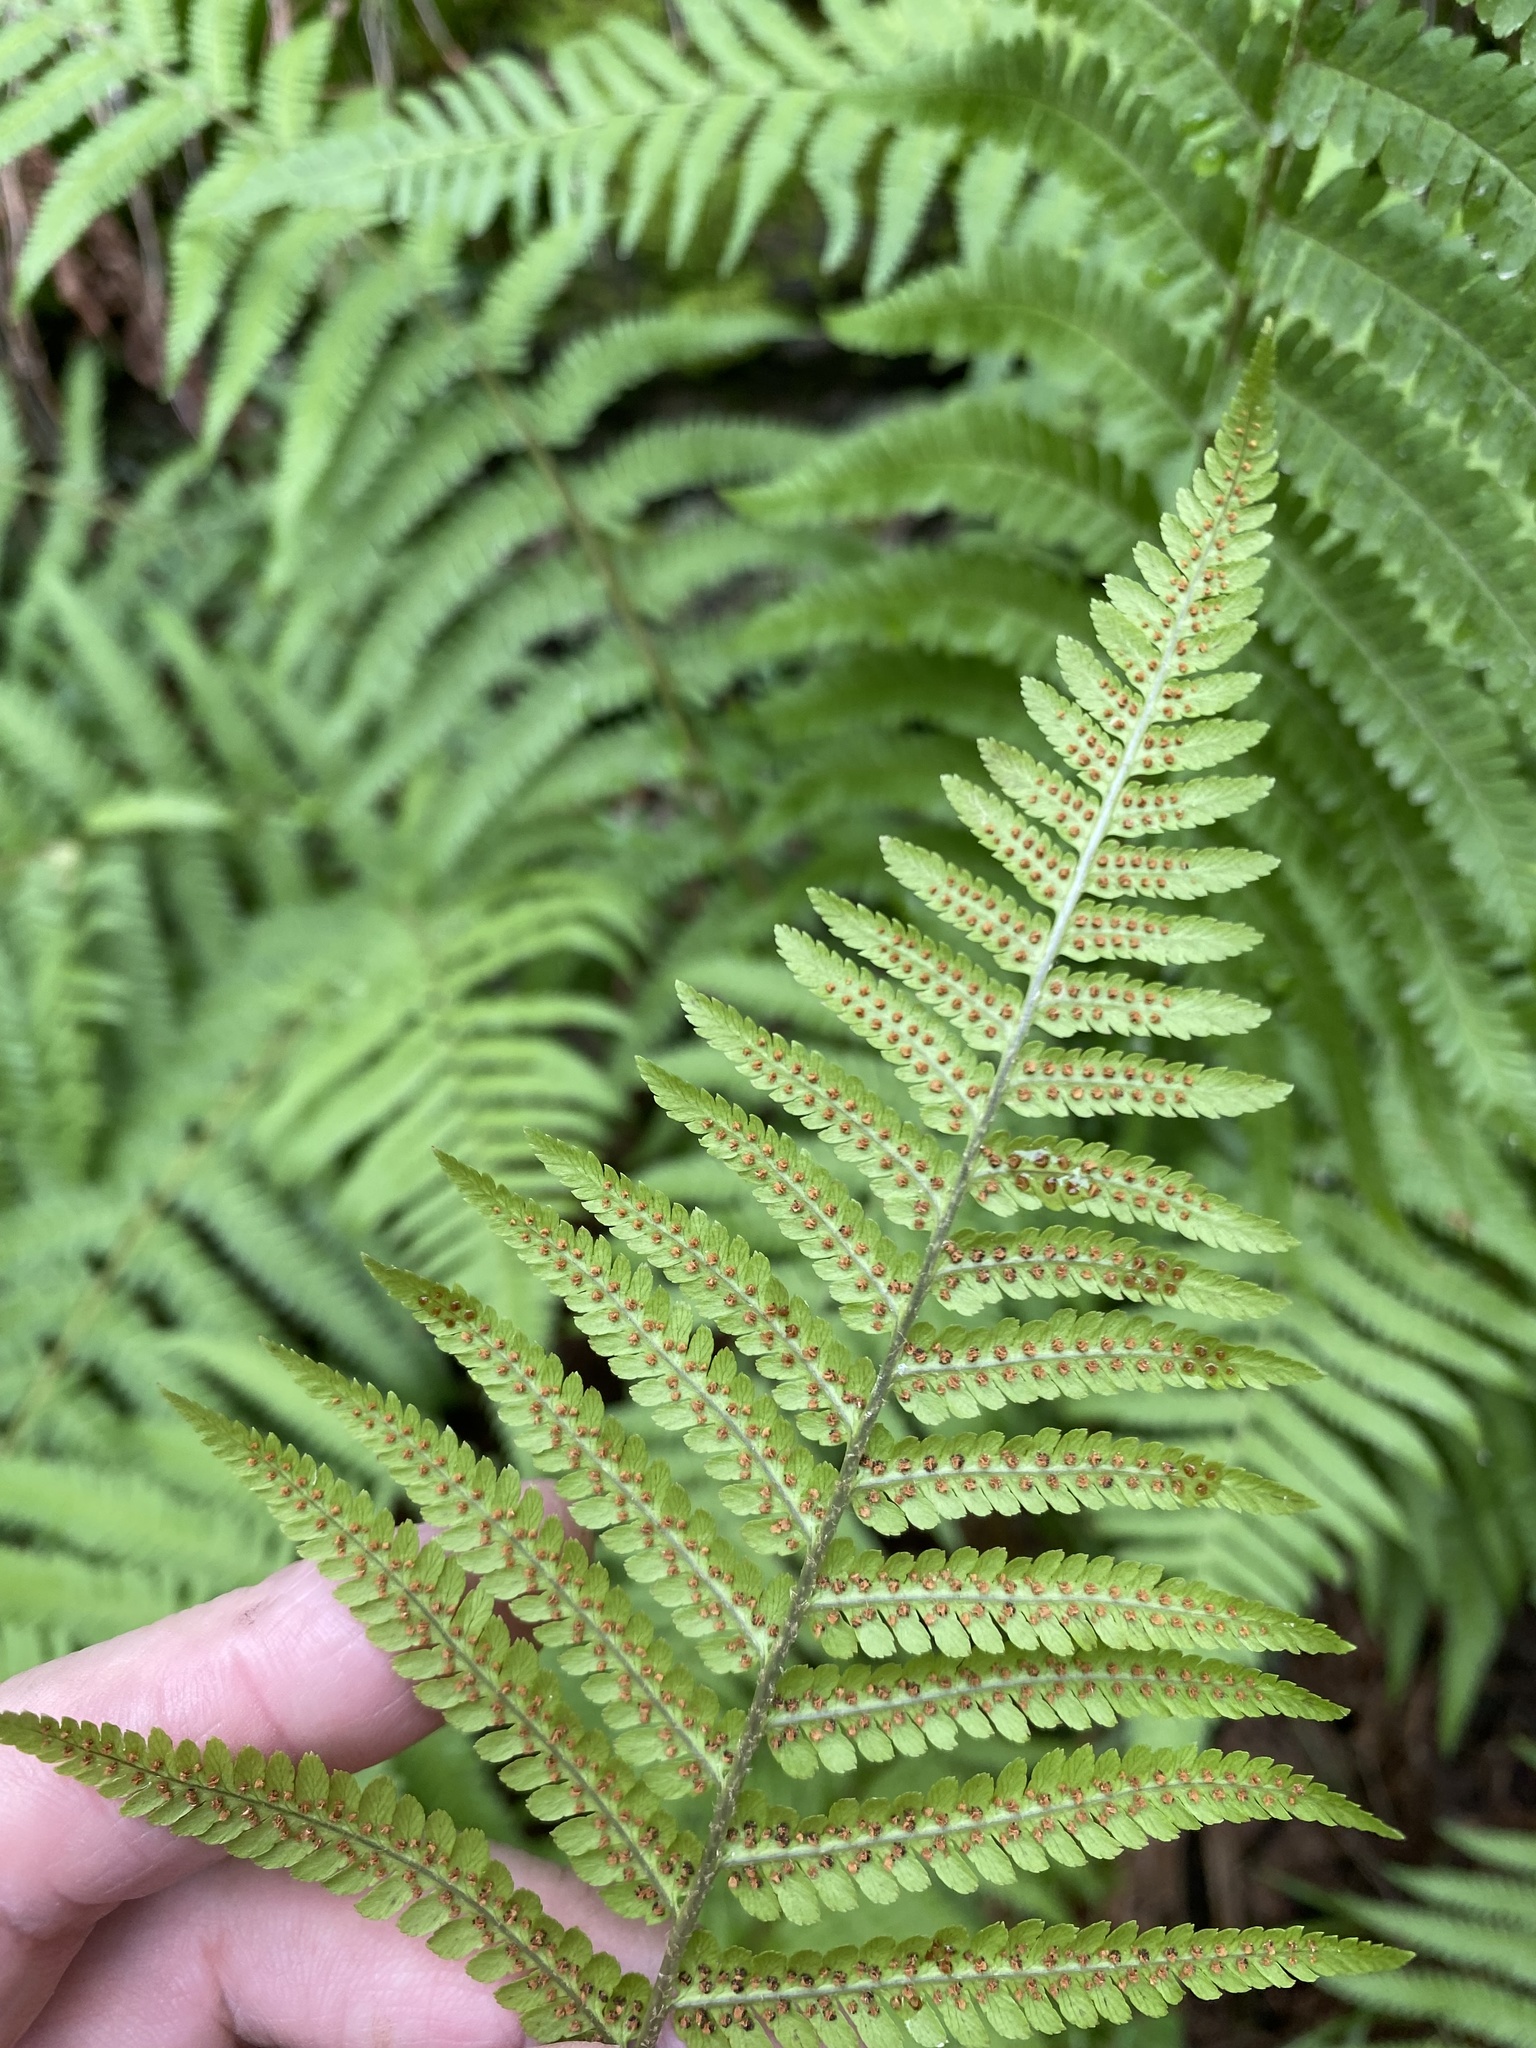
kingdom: Plantae
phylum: Tracheophyta
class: Polypodiopsida
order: Polypodiales
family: Dryopteridaceae
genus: Dryopteris
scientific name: Dryopteris filix-mas
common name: Male fern
